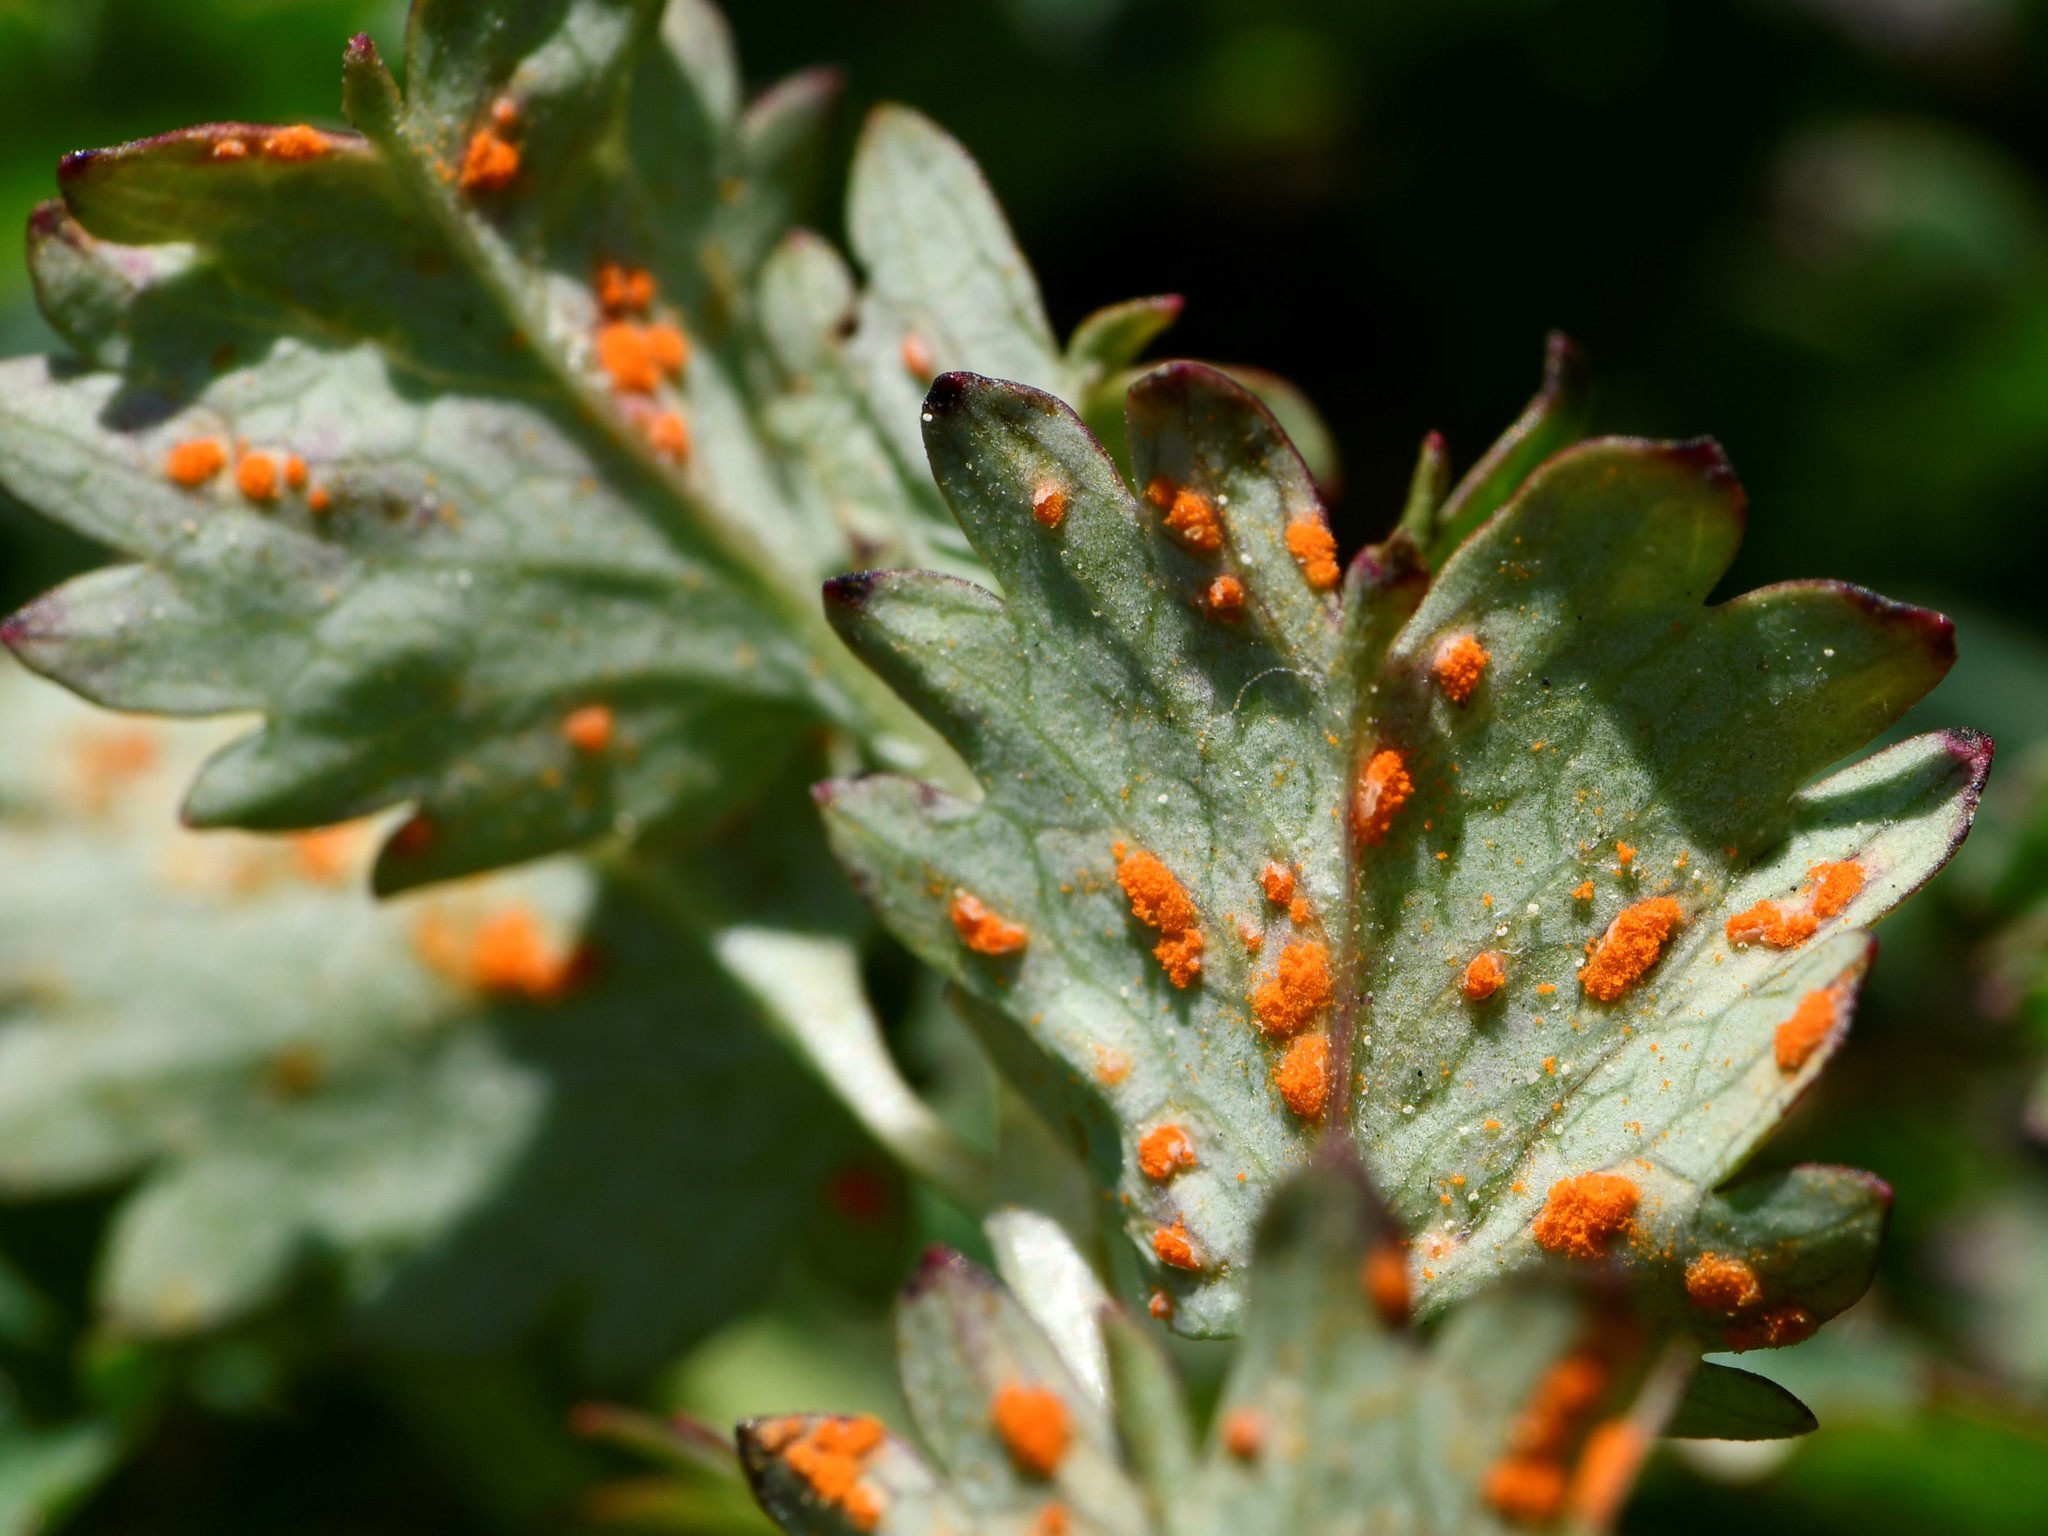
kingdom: Fungi
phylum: Basidiomycota
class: Pucciniomycetes
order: Pucciniales
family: Phragmidiaceae
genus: Phragmidium
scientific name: Phragmidium sanguisorbae
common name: Salad burnet rust
